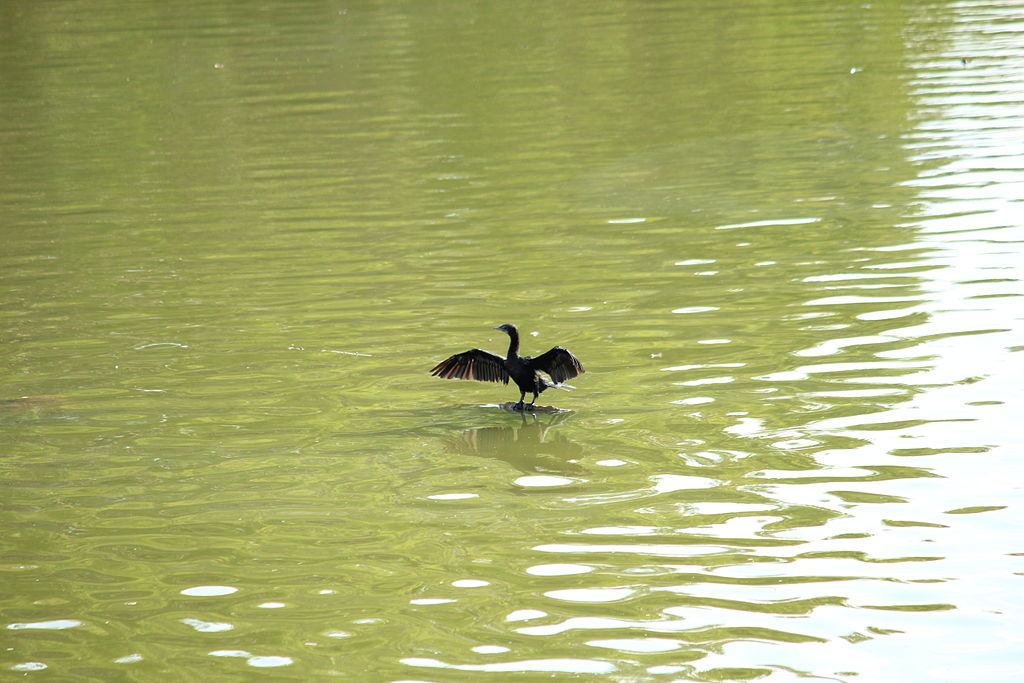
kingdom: Animalia
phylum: Chordata
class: Aves
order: Suliformes
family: Phalacrocoracidae
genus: Microcarbo
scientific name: Microcarbo niger
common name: Little cormorant
